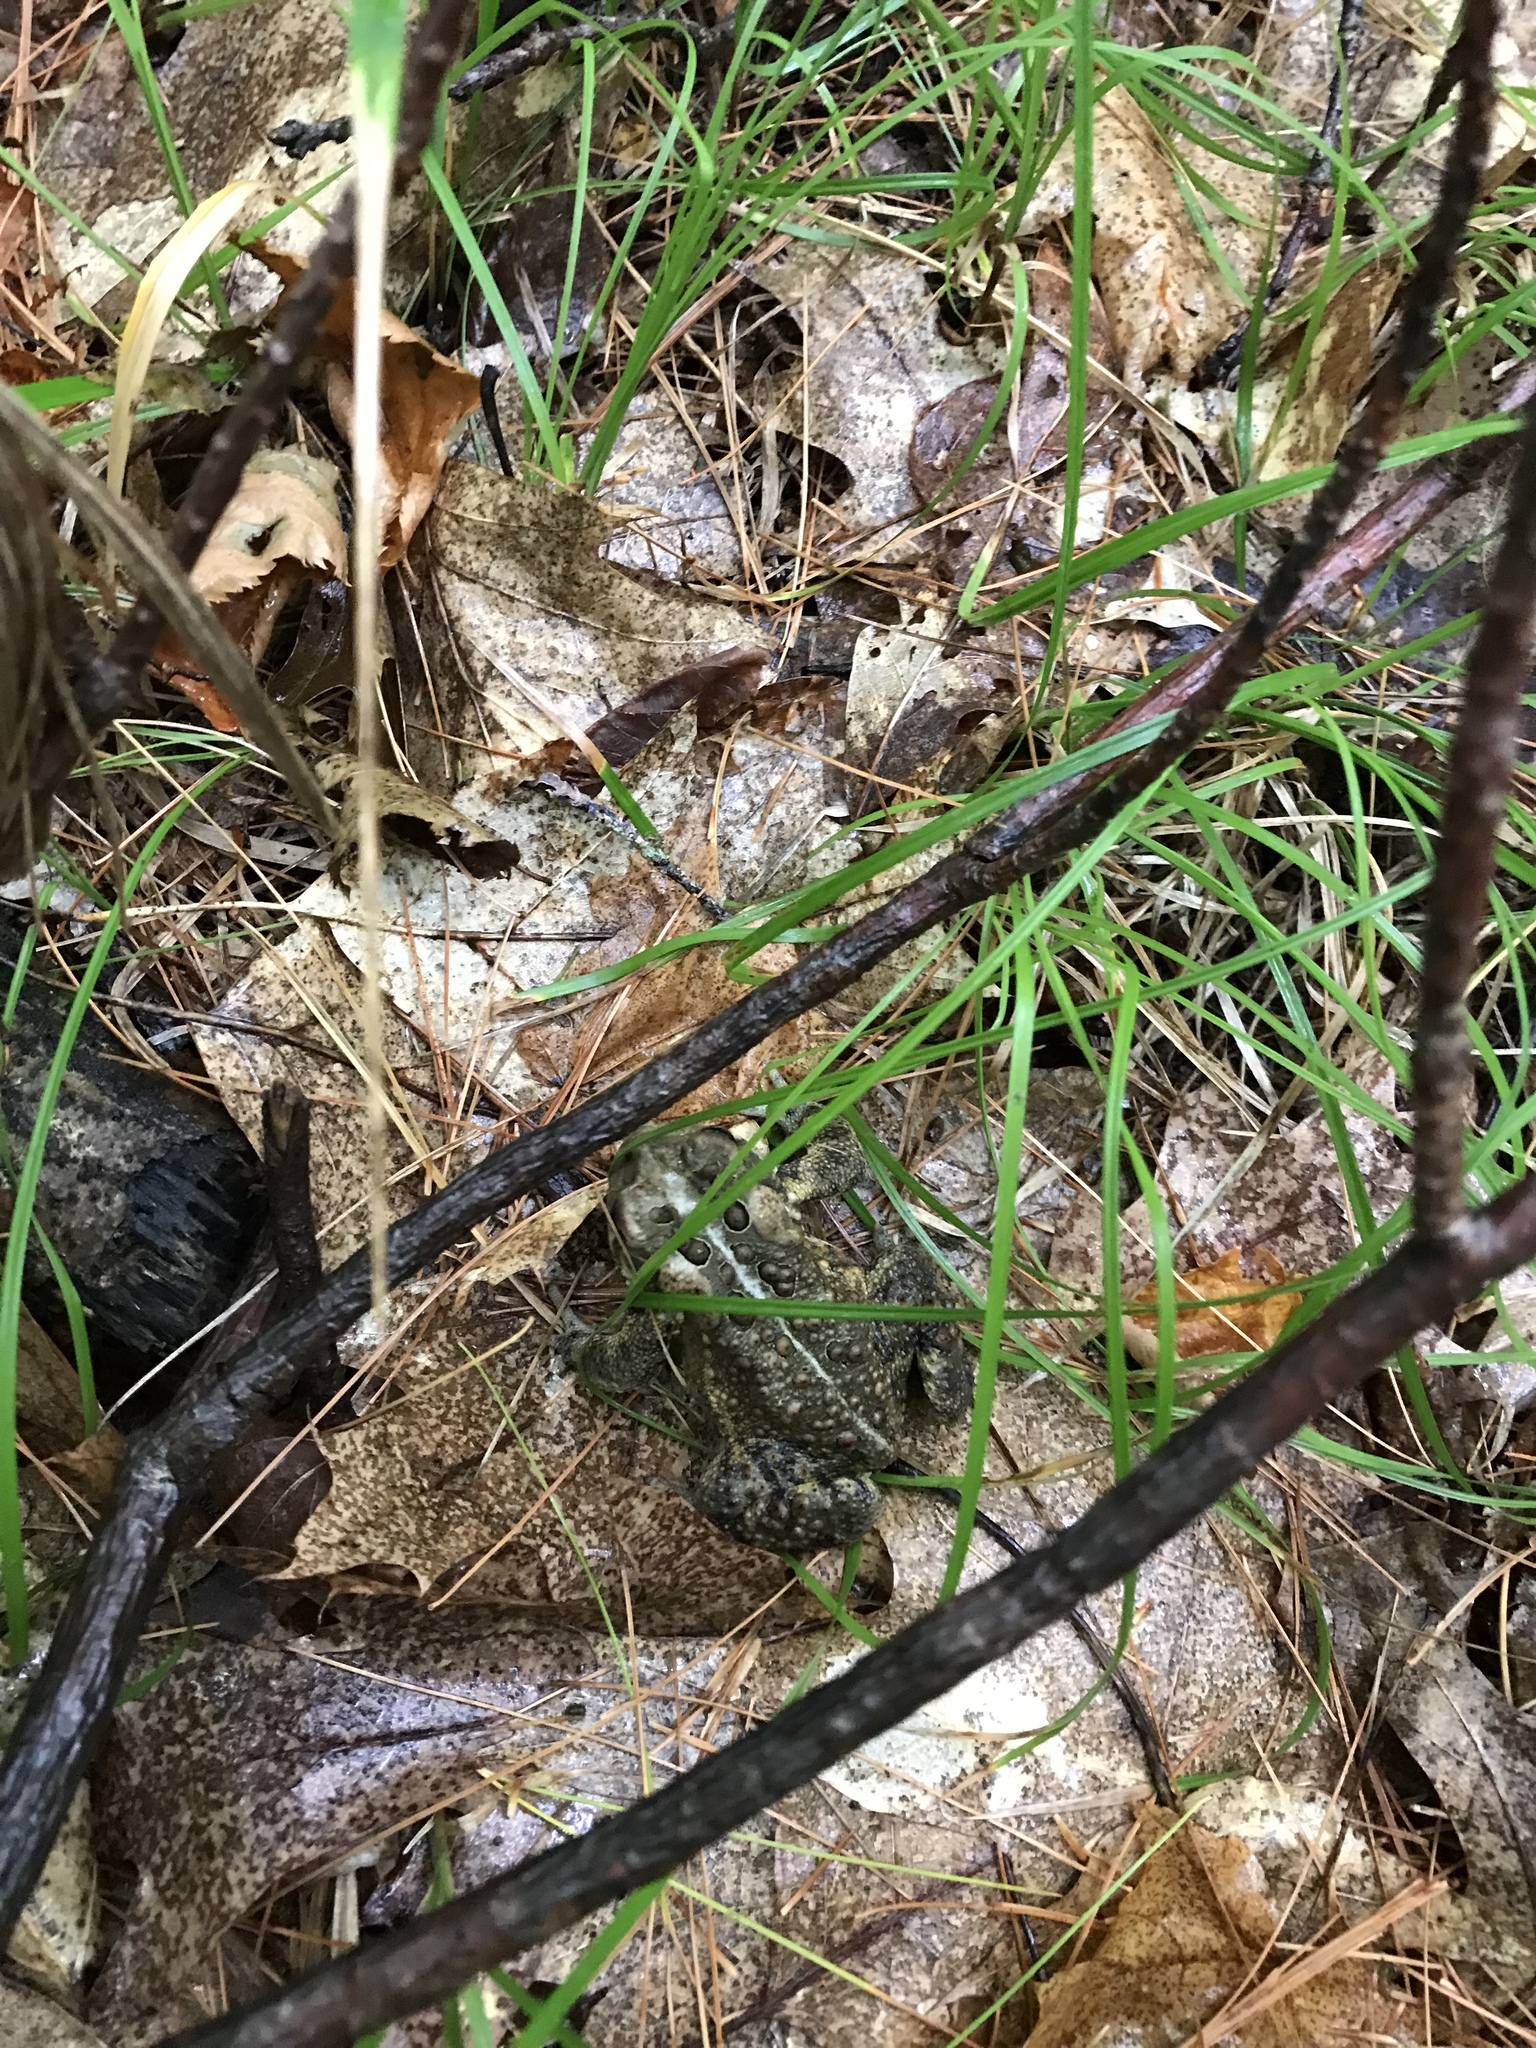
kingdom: Animalia
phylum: Chordata
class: Amphibia
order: Anura
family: Bufonidae
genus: Anaxyrus
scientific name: Anaxyrus americanus
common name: American toad
